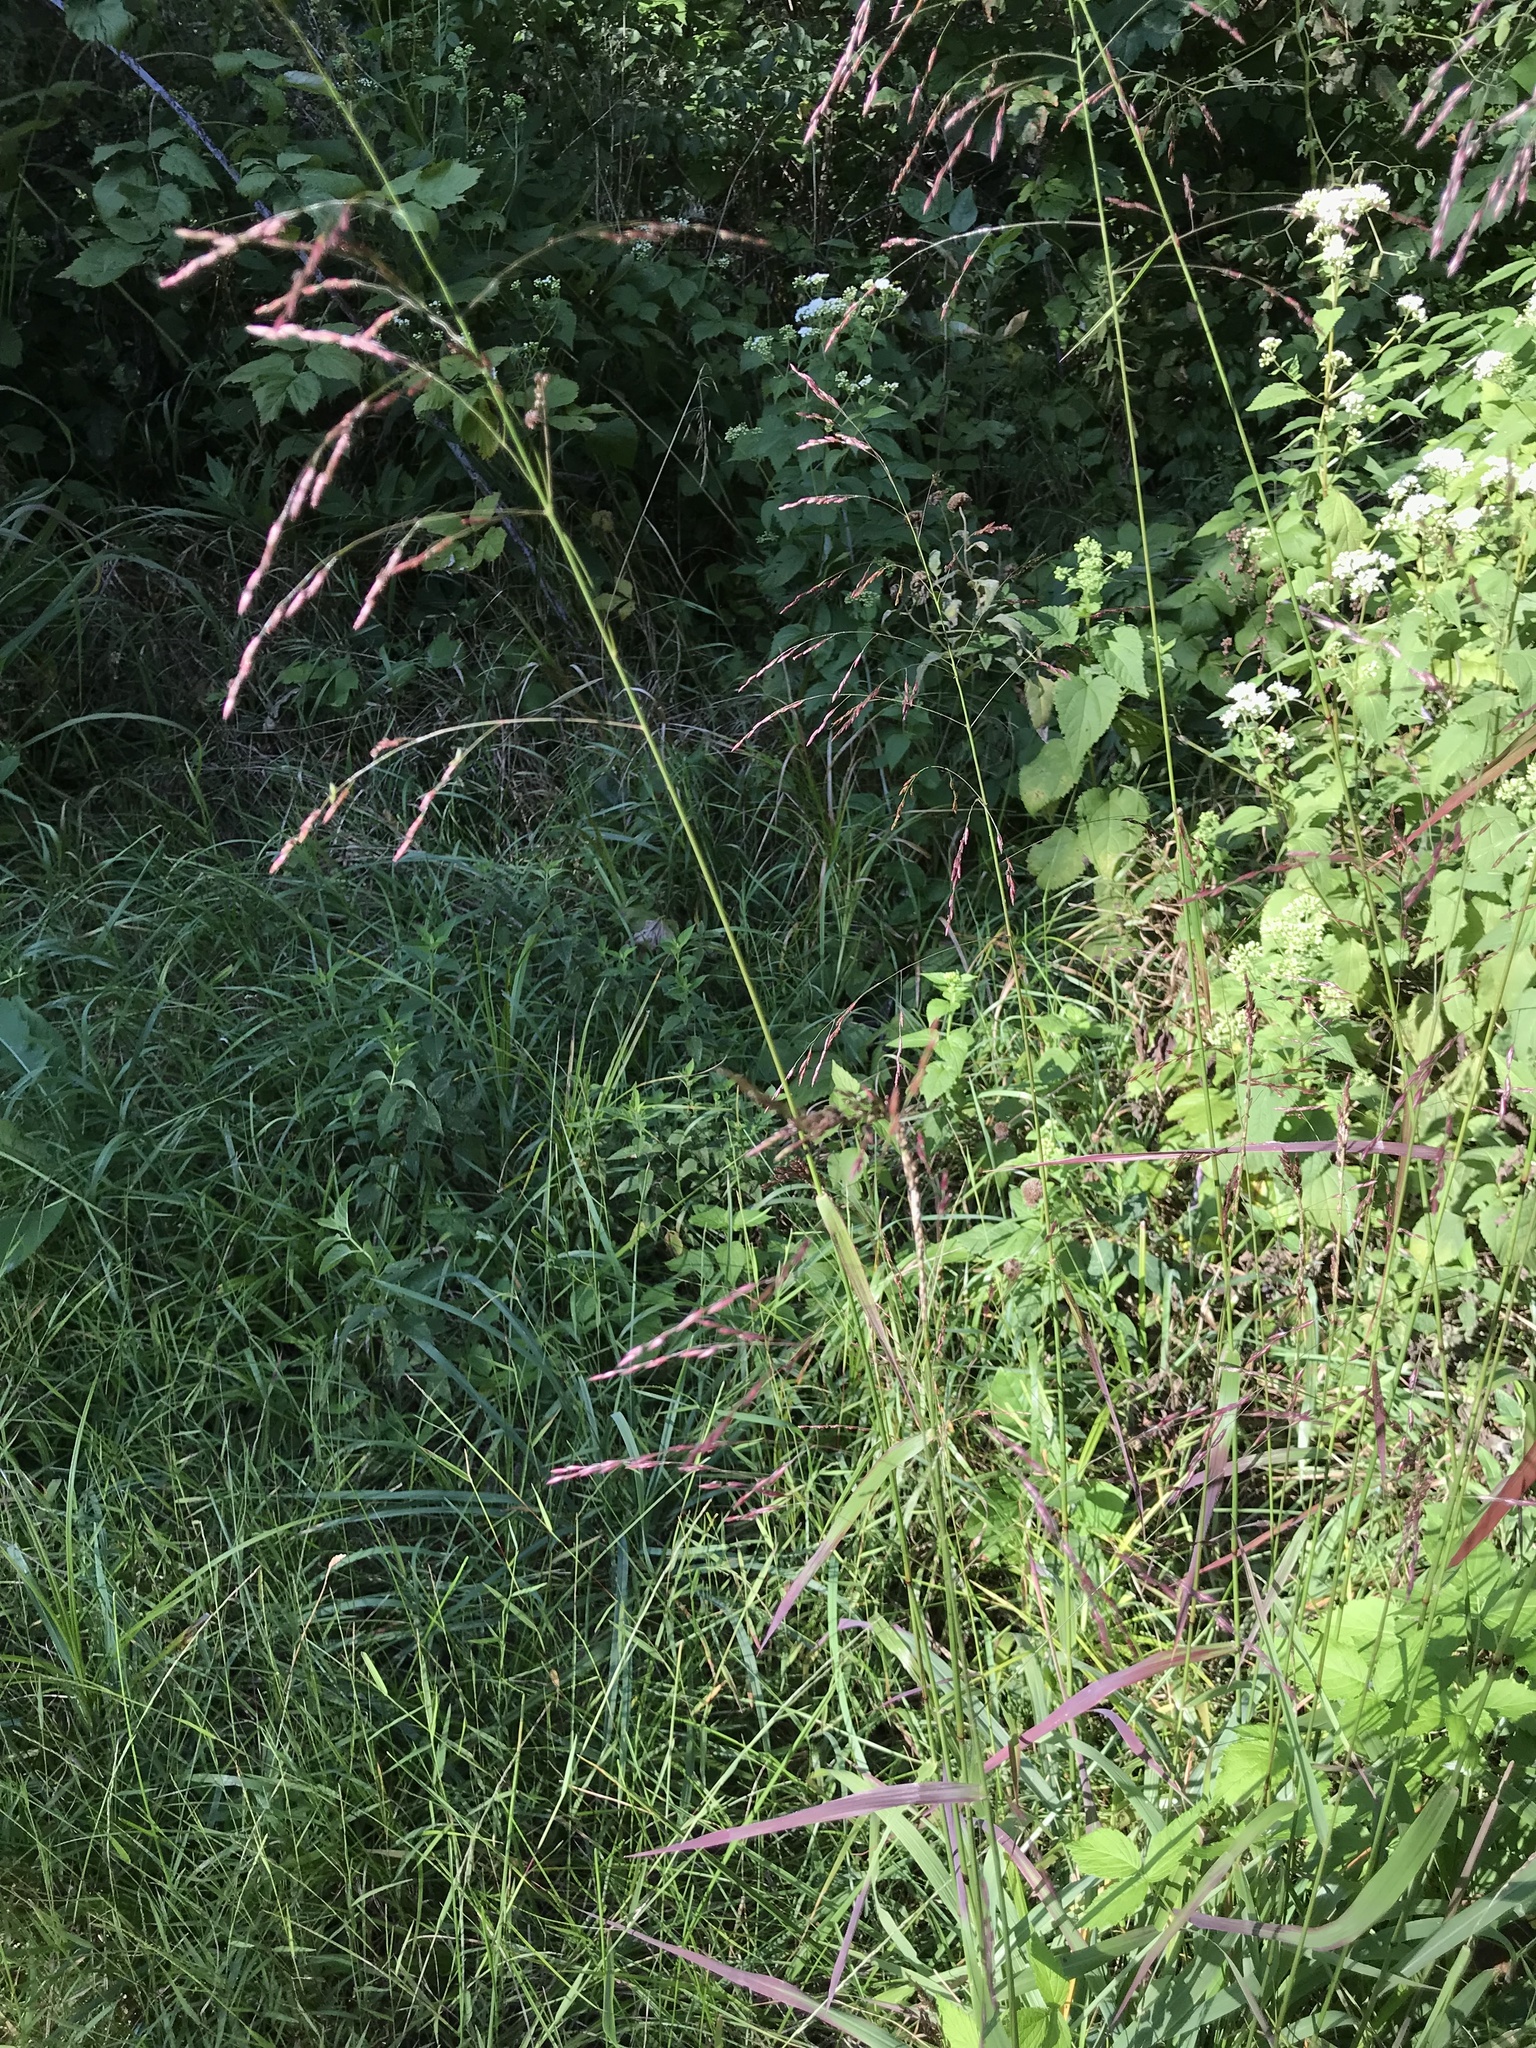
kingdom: Plantae
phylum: Tracheophyta
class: Liliopsida
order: Poales
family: Poaceae
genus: Tridens
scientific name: Tridens flavus
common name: Purpletop
